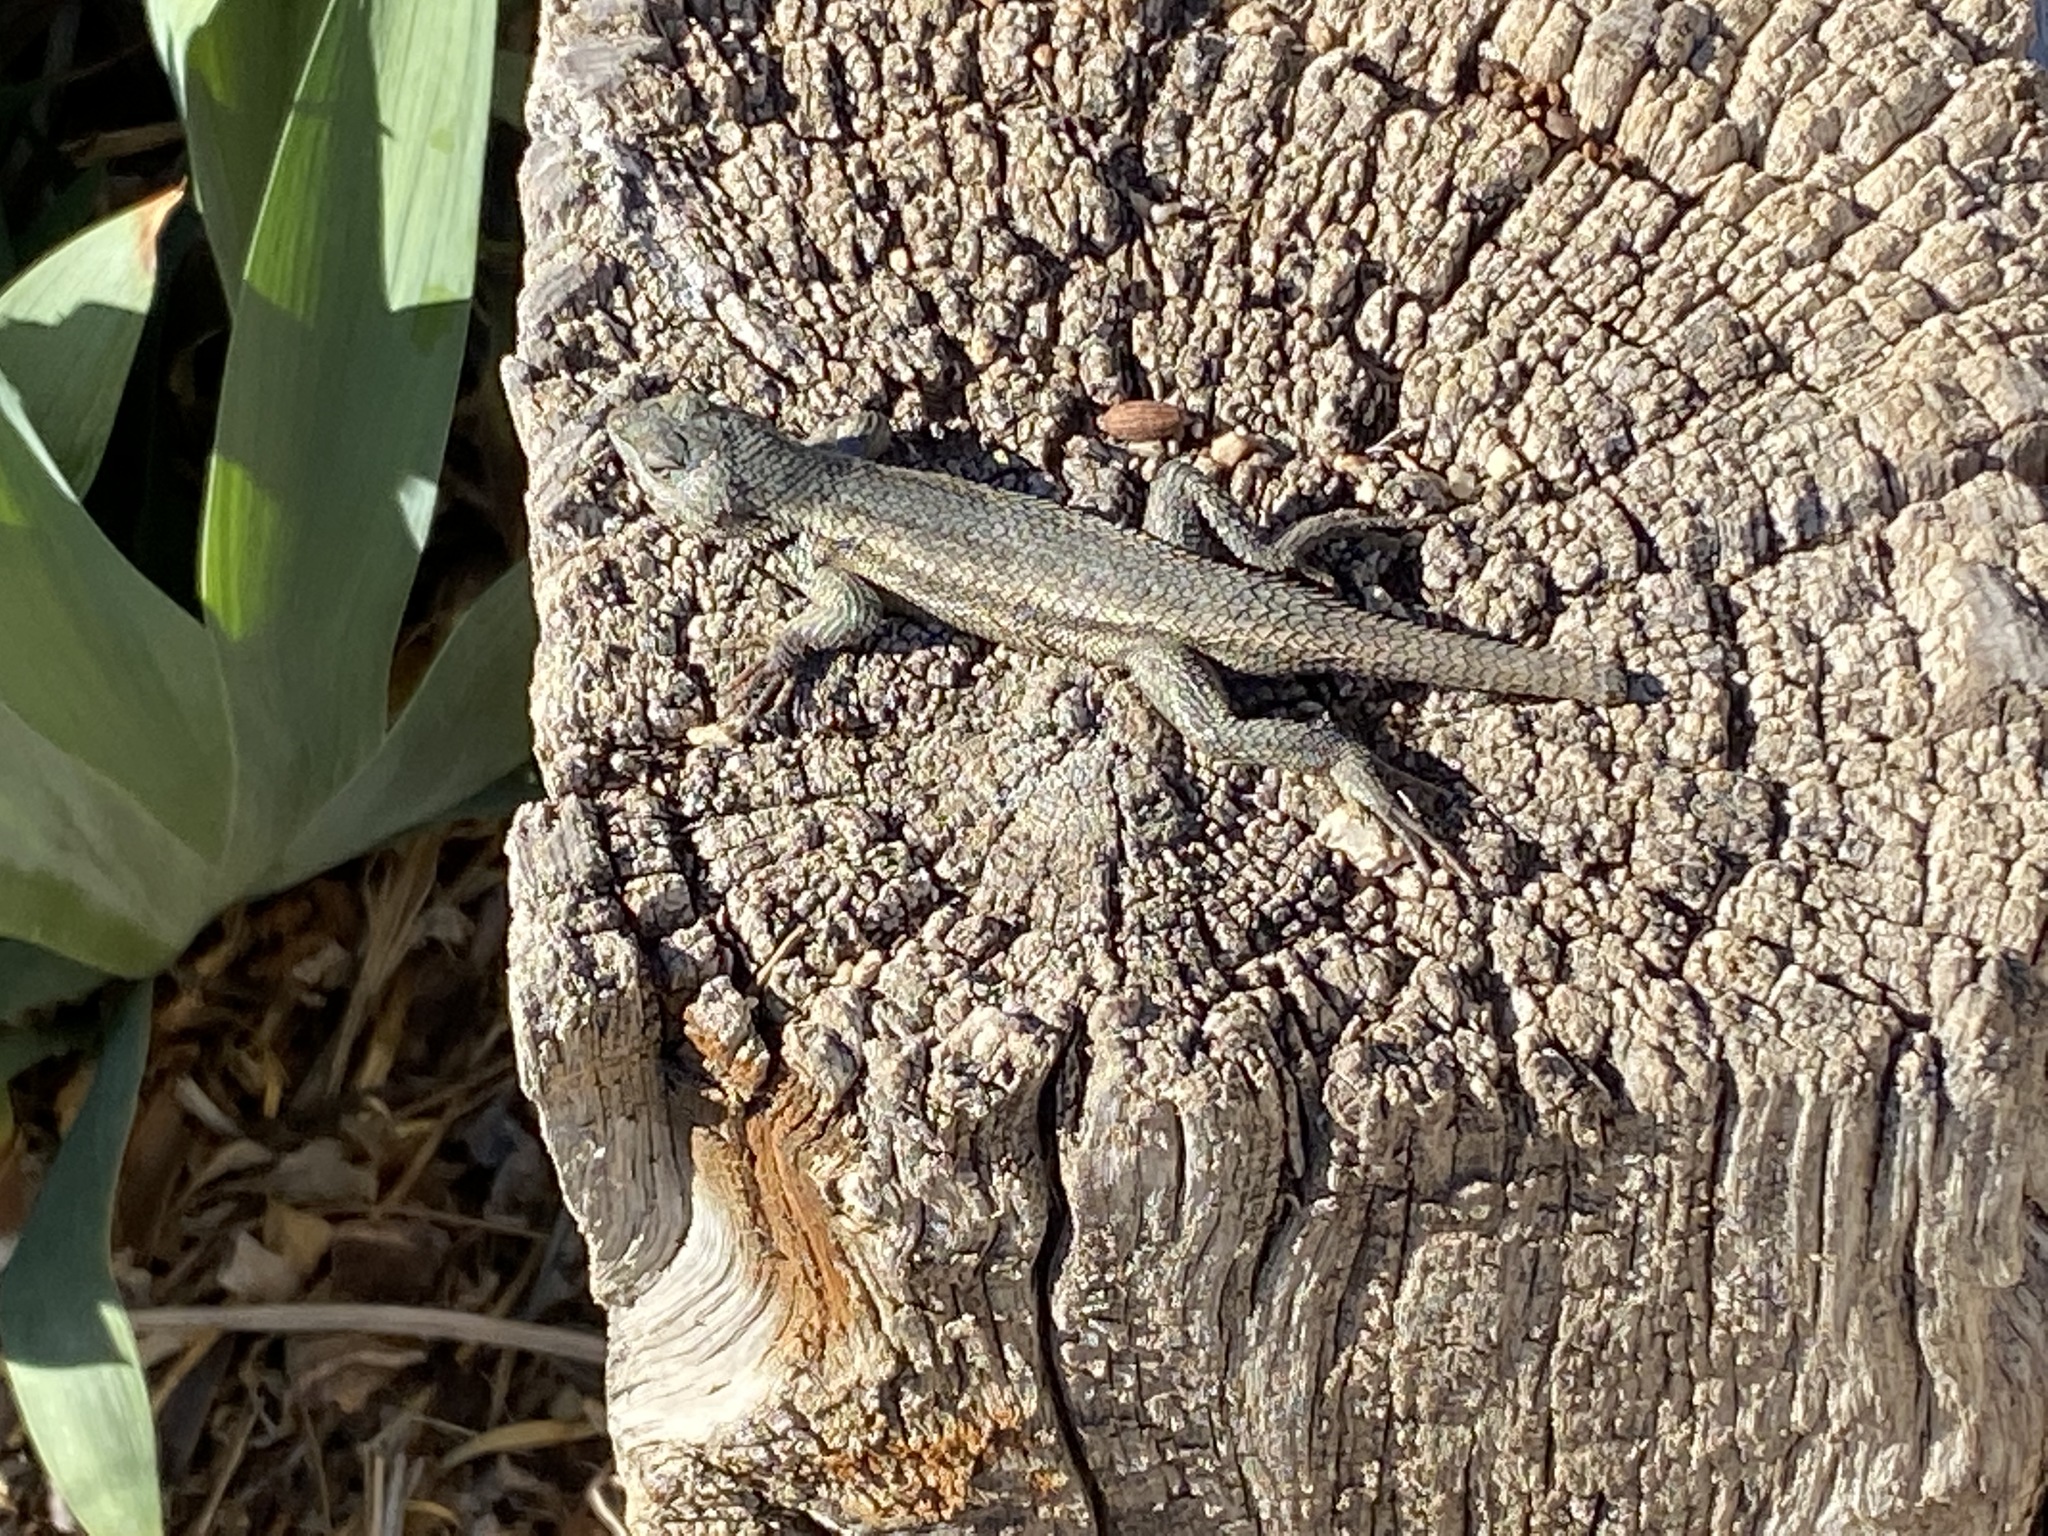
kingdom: Animalia
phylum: Chordata
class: Squamata
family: Phrynosomatidae
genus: Sceloporus
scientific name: Sceloporus cowlesi
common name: White sands prairie lizard
